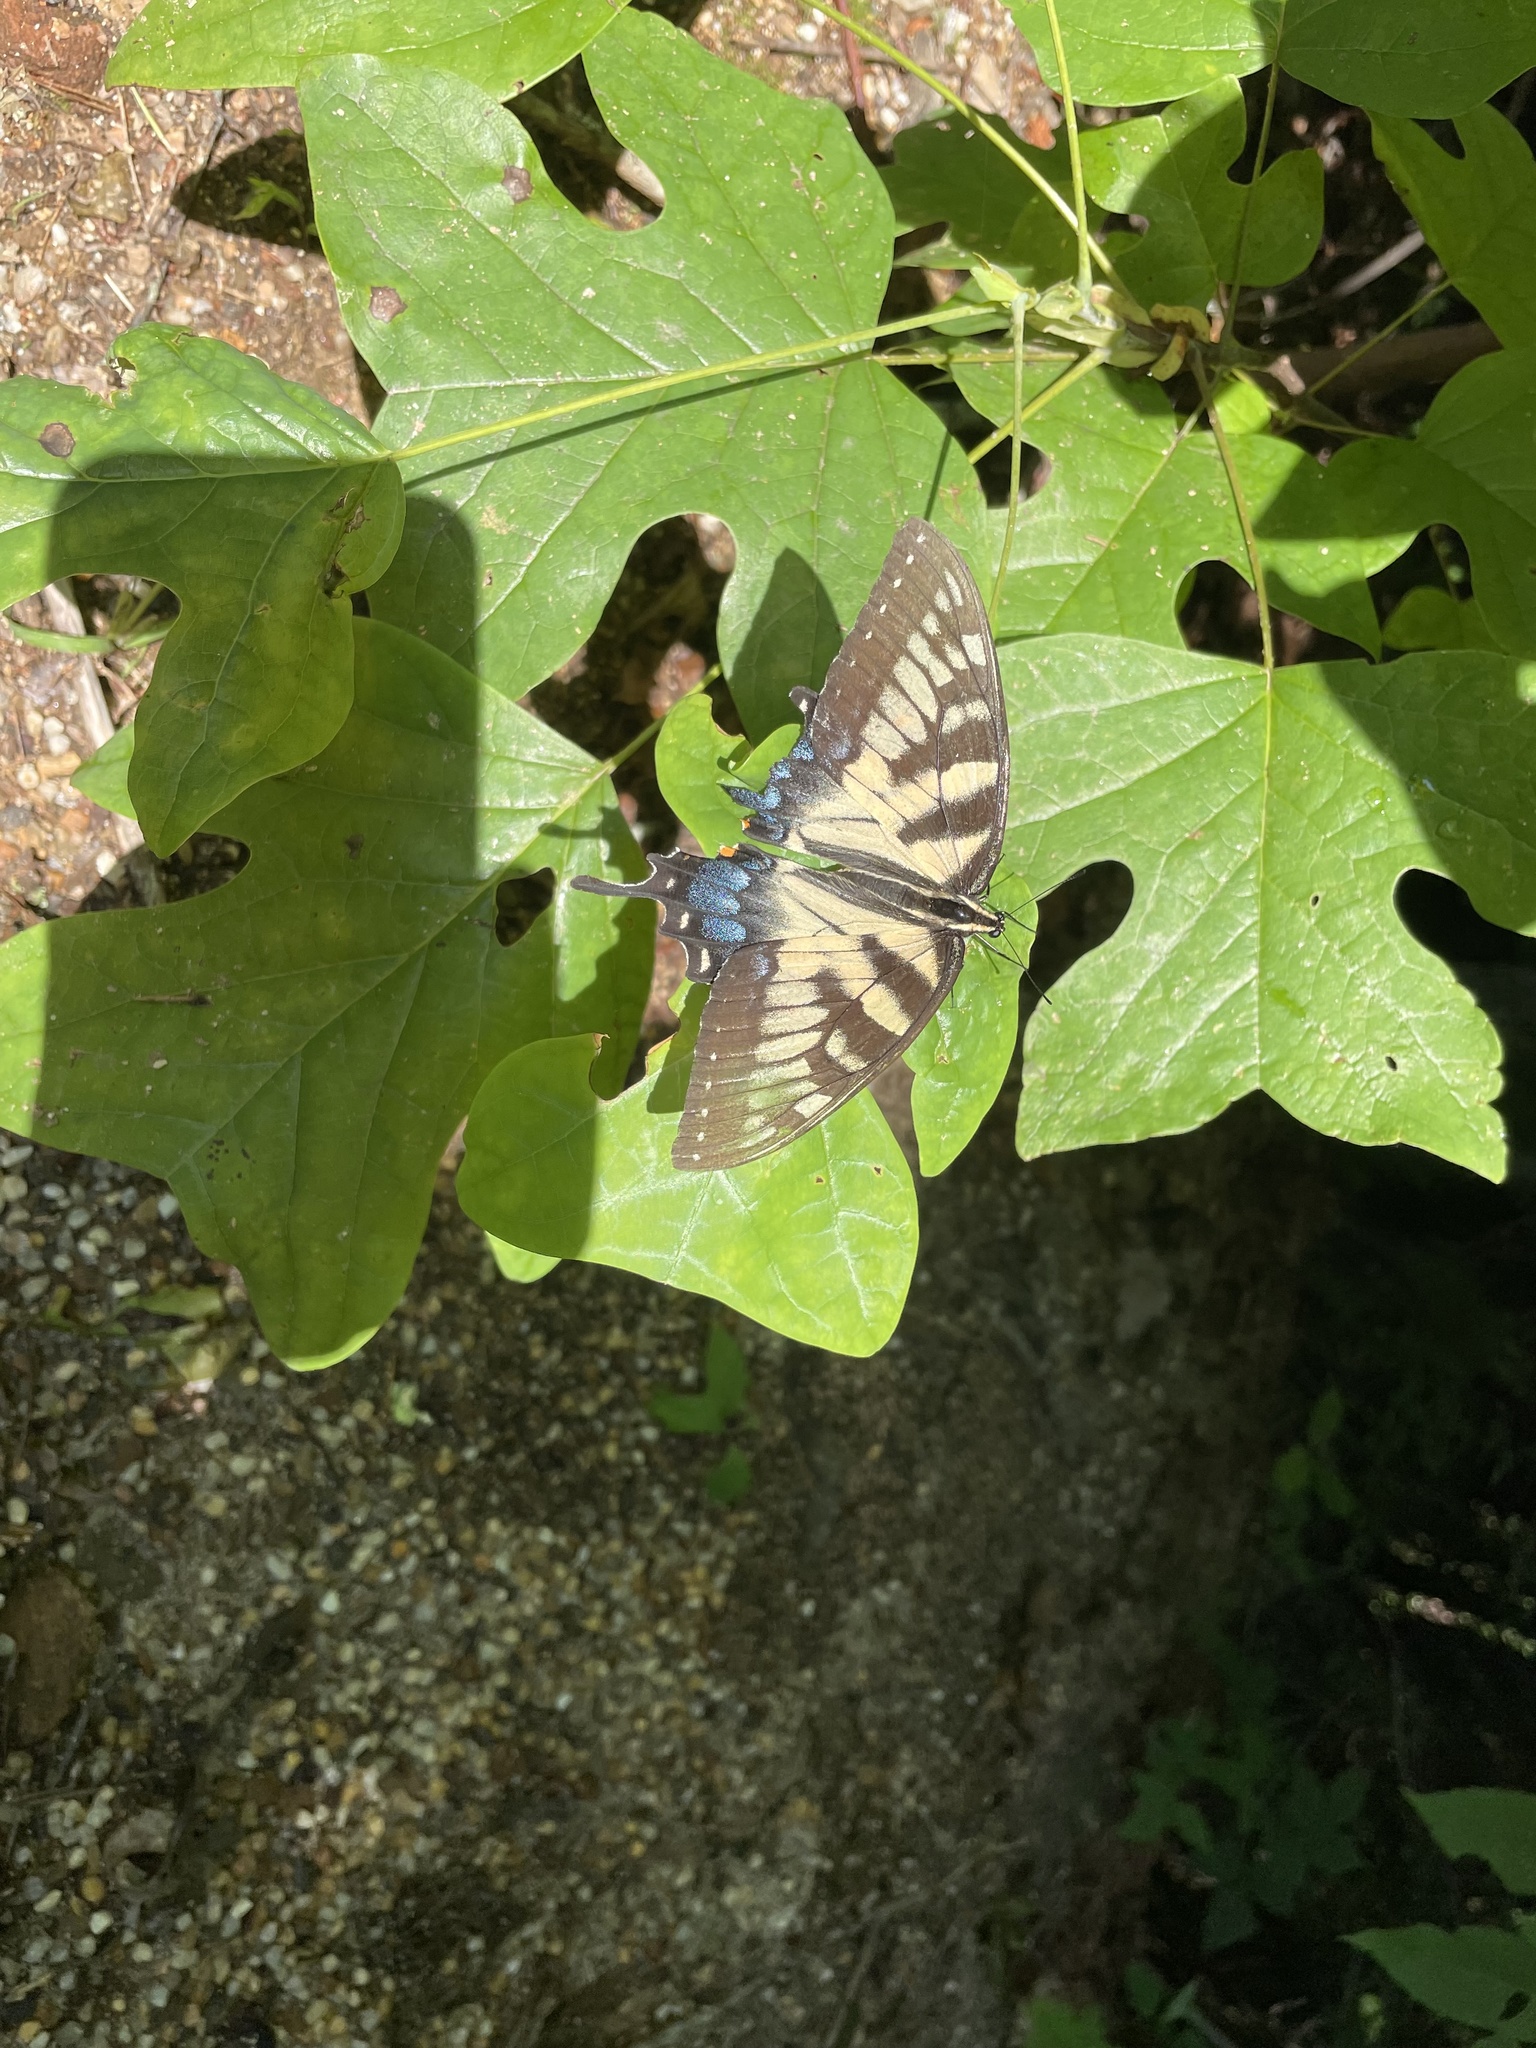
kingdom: Animalia
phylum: Arthropoda
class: Insecta
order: Lepidoptera
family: Papilionidae
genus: Papilio
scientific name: Papilio glaucus
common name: Tiger swallowtail
